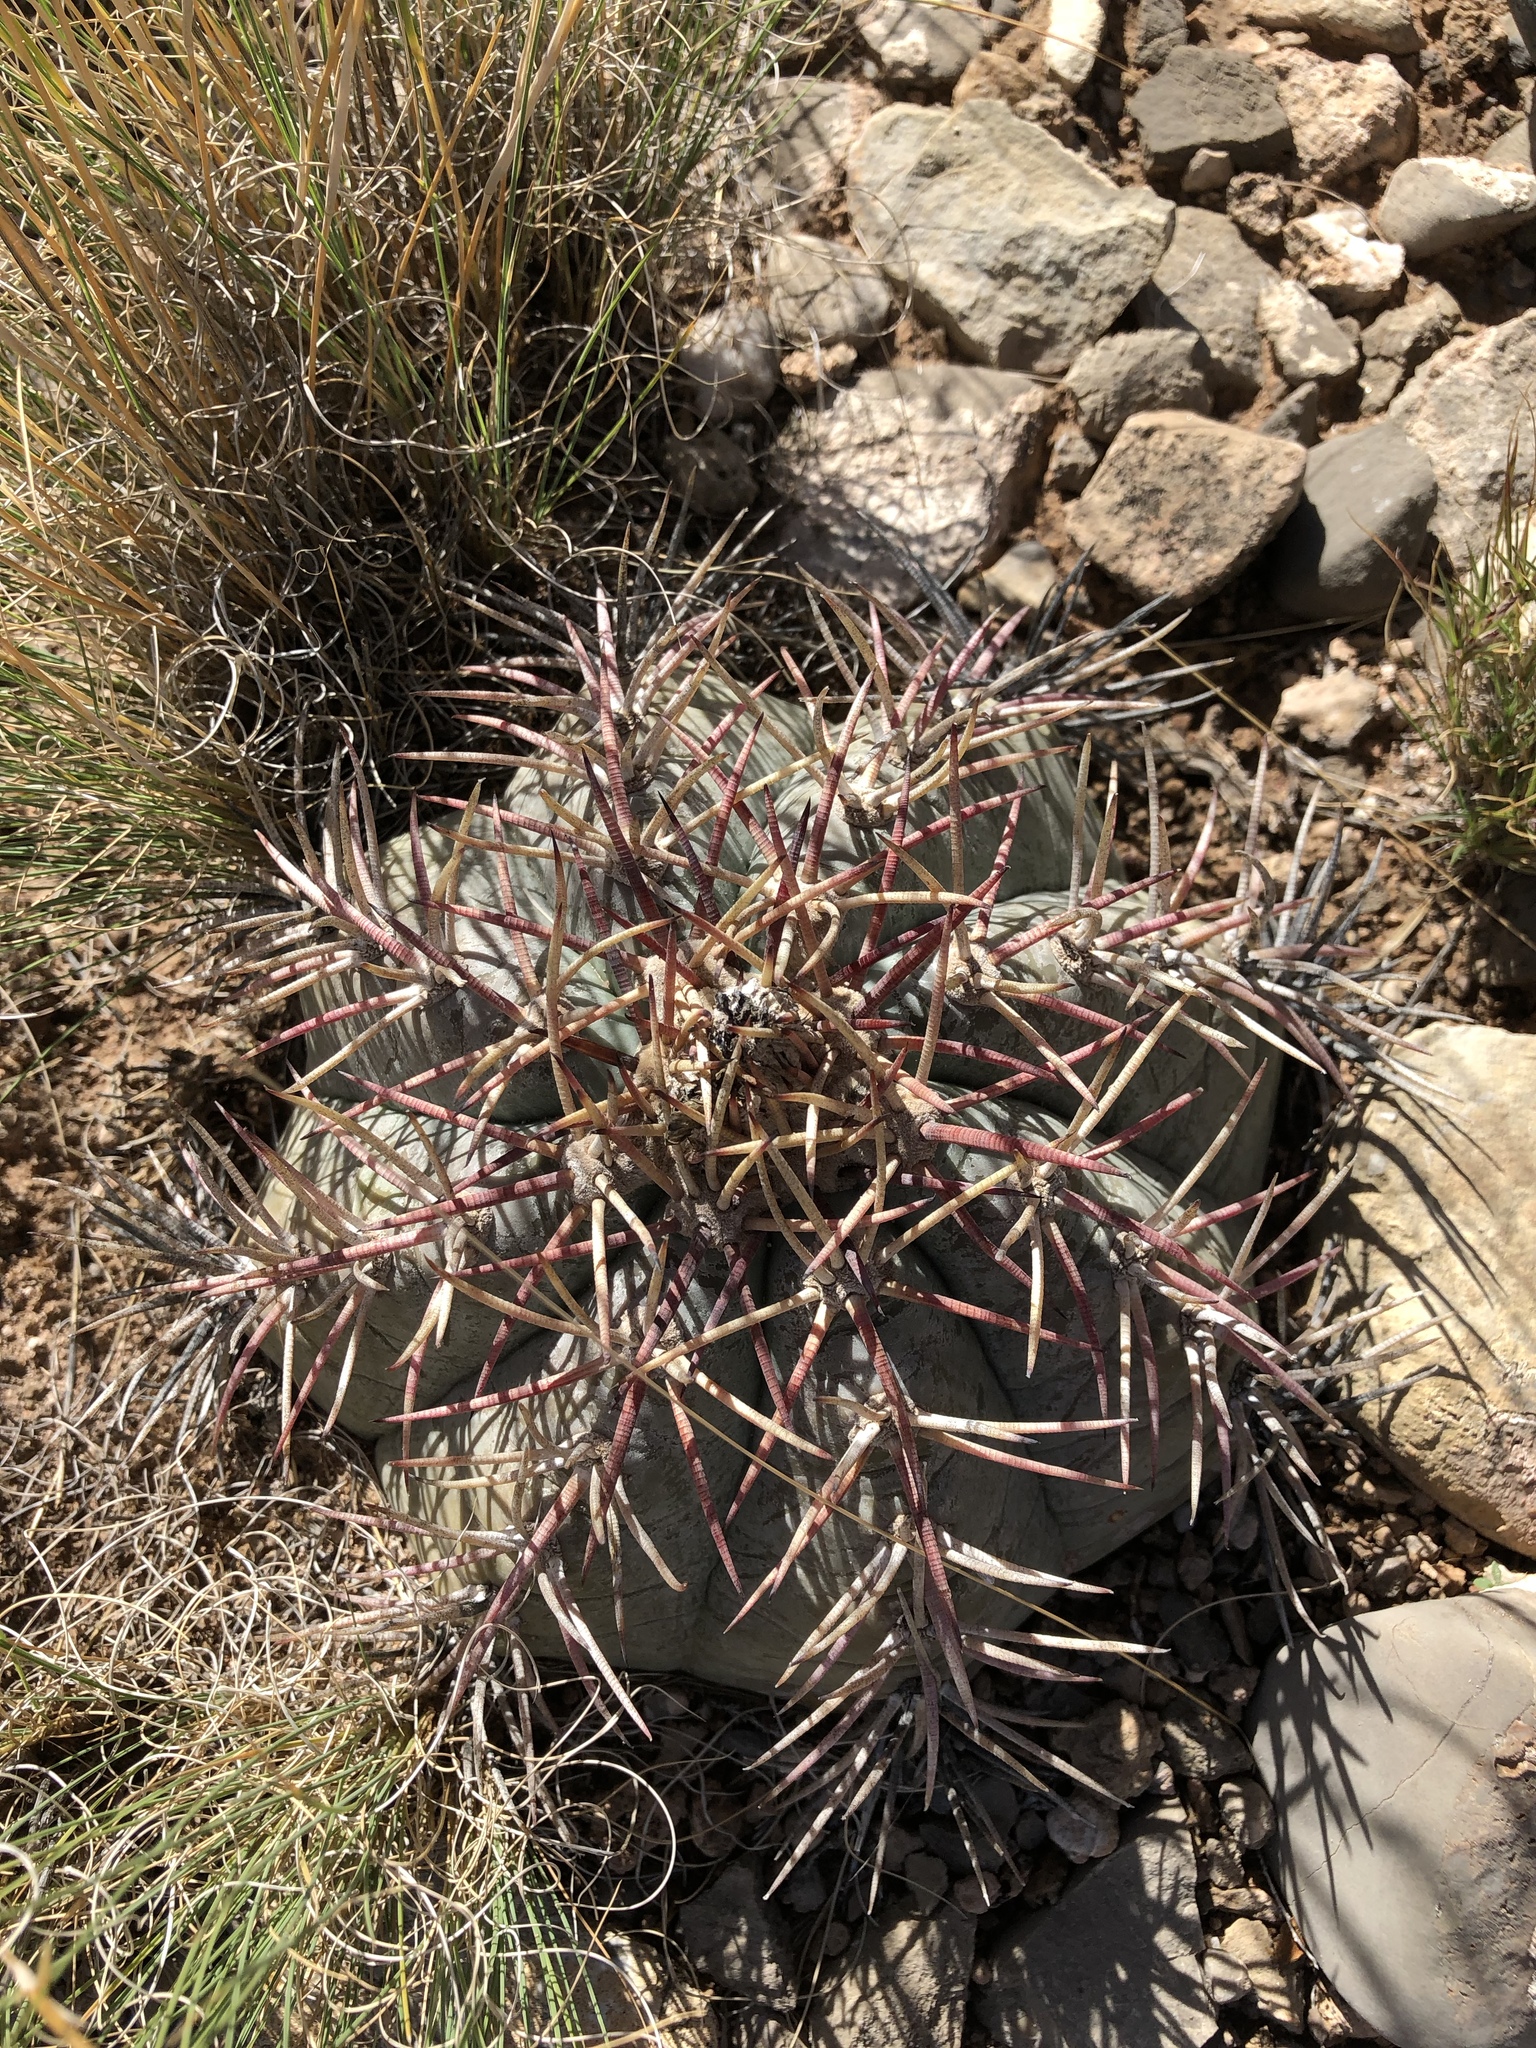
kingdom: Plantae
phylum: Tracheophyta
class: Magnoliopsida
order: Caryophyllales
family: Cactaceae
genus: Echinocactus
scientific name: Echinocactus horizonthalonius
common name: Devilshead
